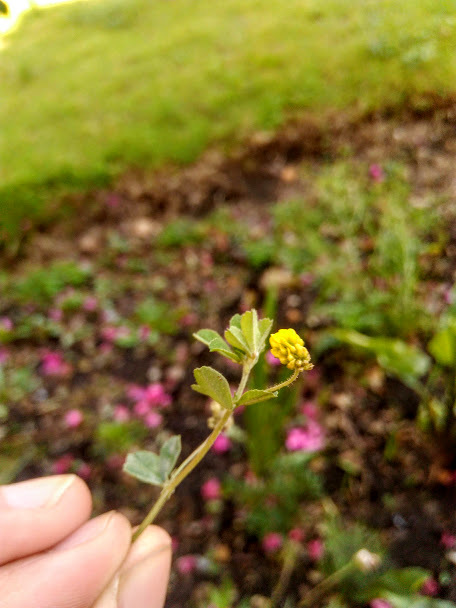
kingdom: Plantae
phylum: Tracheophyta
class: Magnoliopsida
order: Fabales
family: Fabaceae
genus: Medicago
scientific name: Medicago lupulina
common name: Black medick
